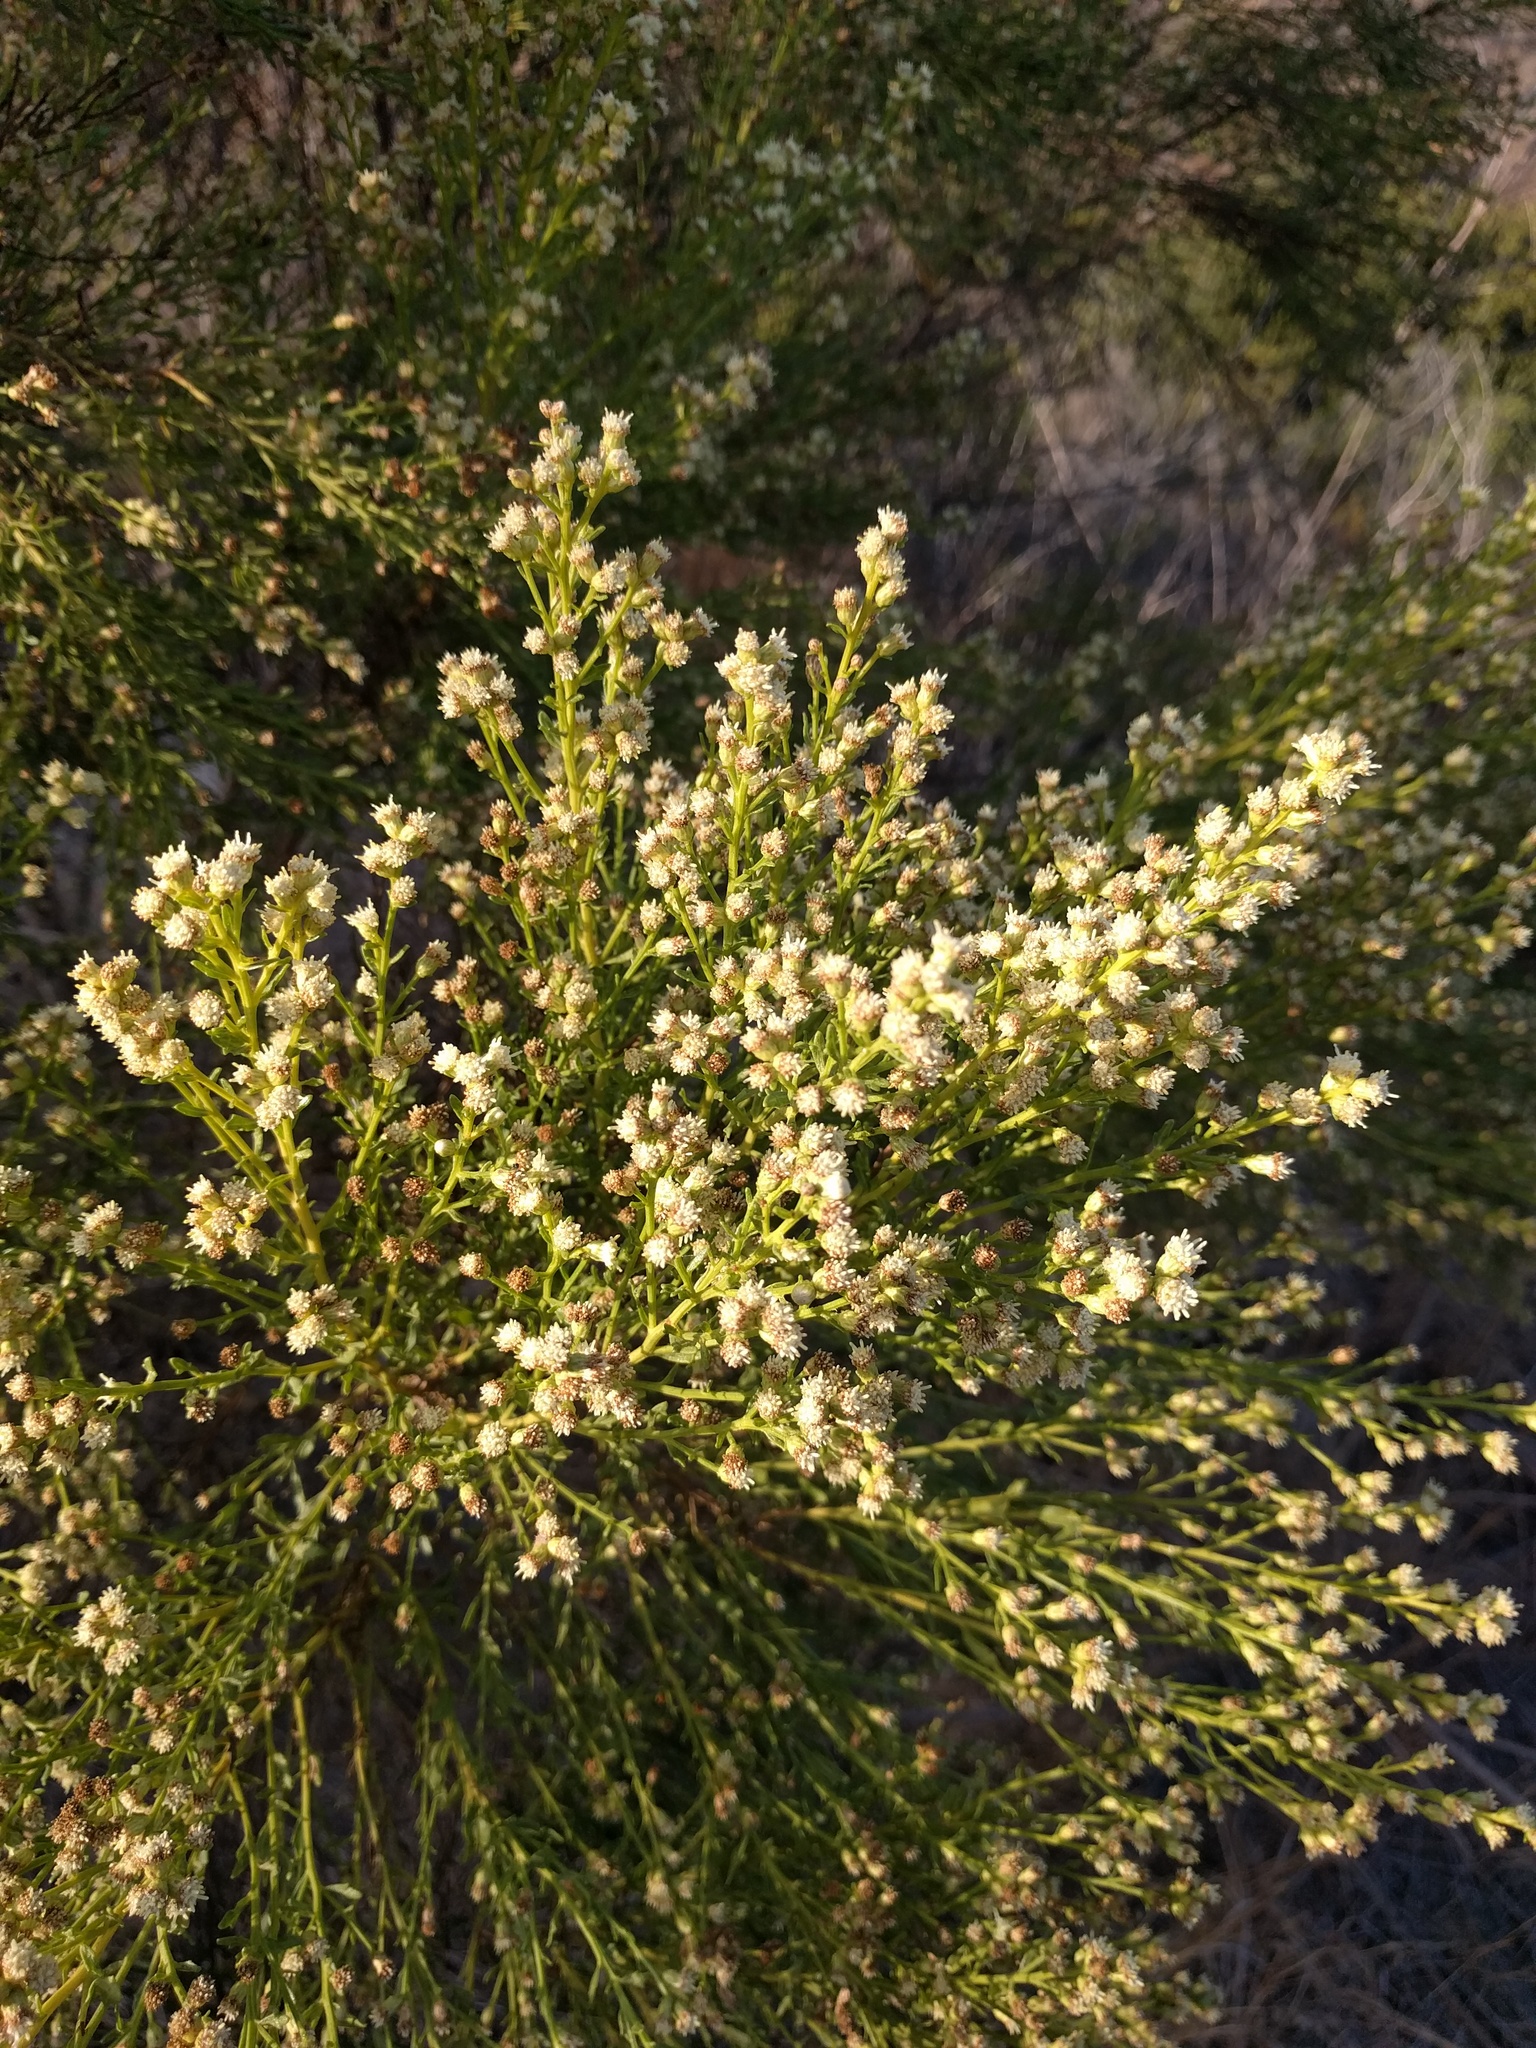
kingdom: Plantae
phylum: Tracheophyta
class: Magnoliopsida
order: Asterales
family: Asteraceae
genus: Baccharis
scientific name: Baccharis sarothroides
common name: Desert-broom
